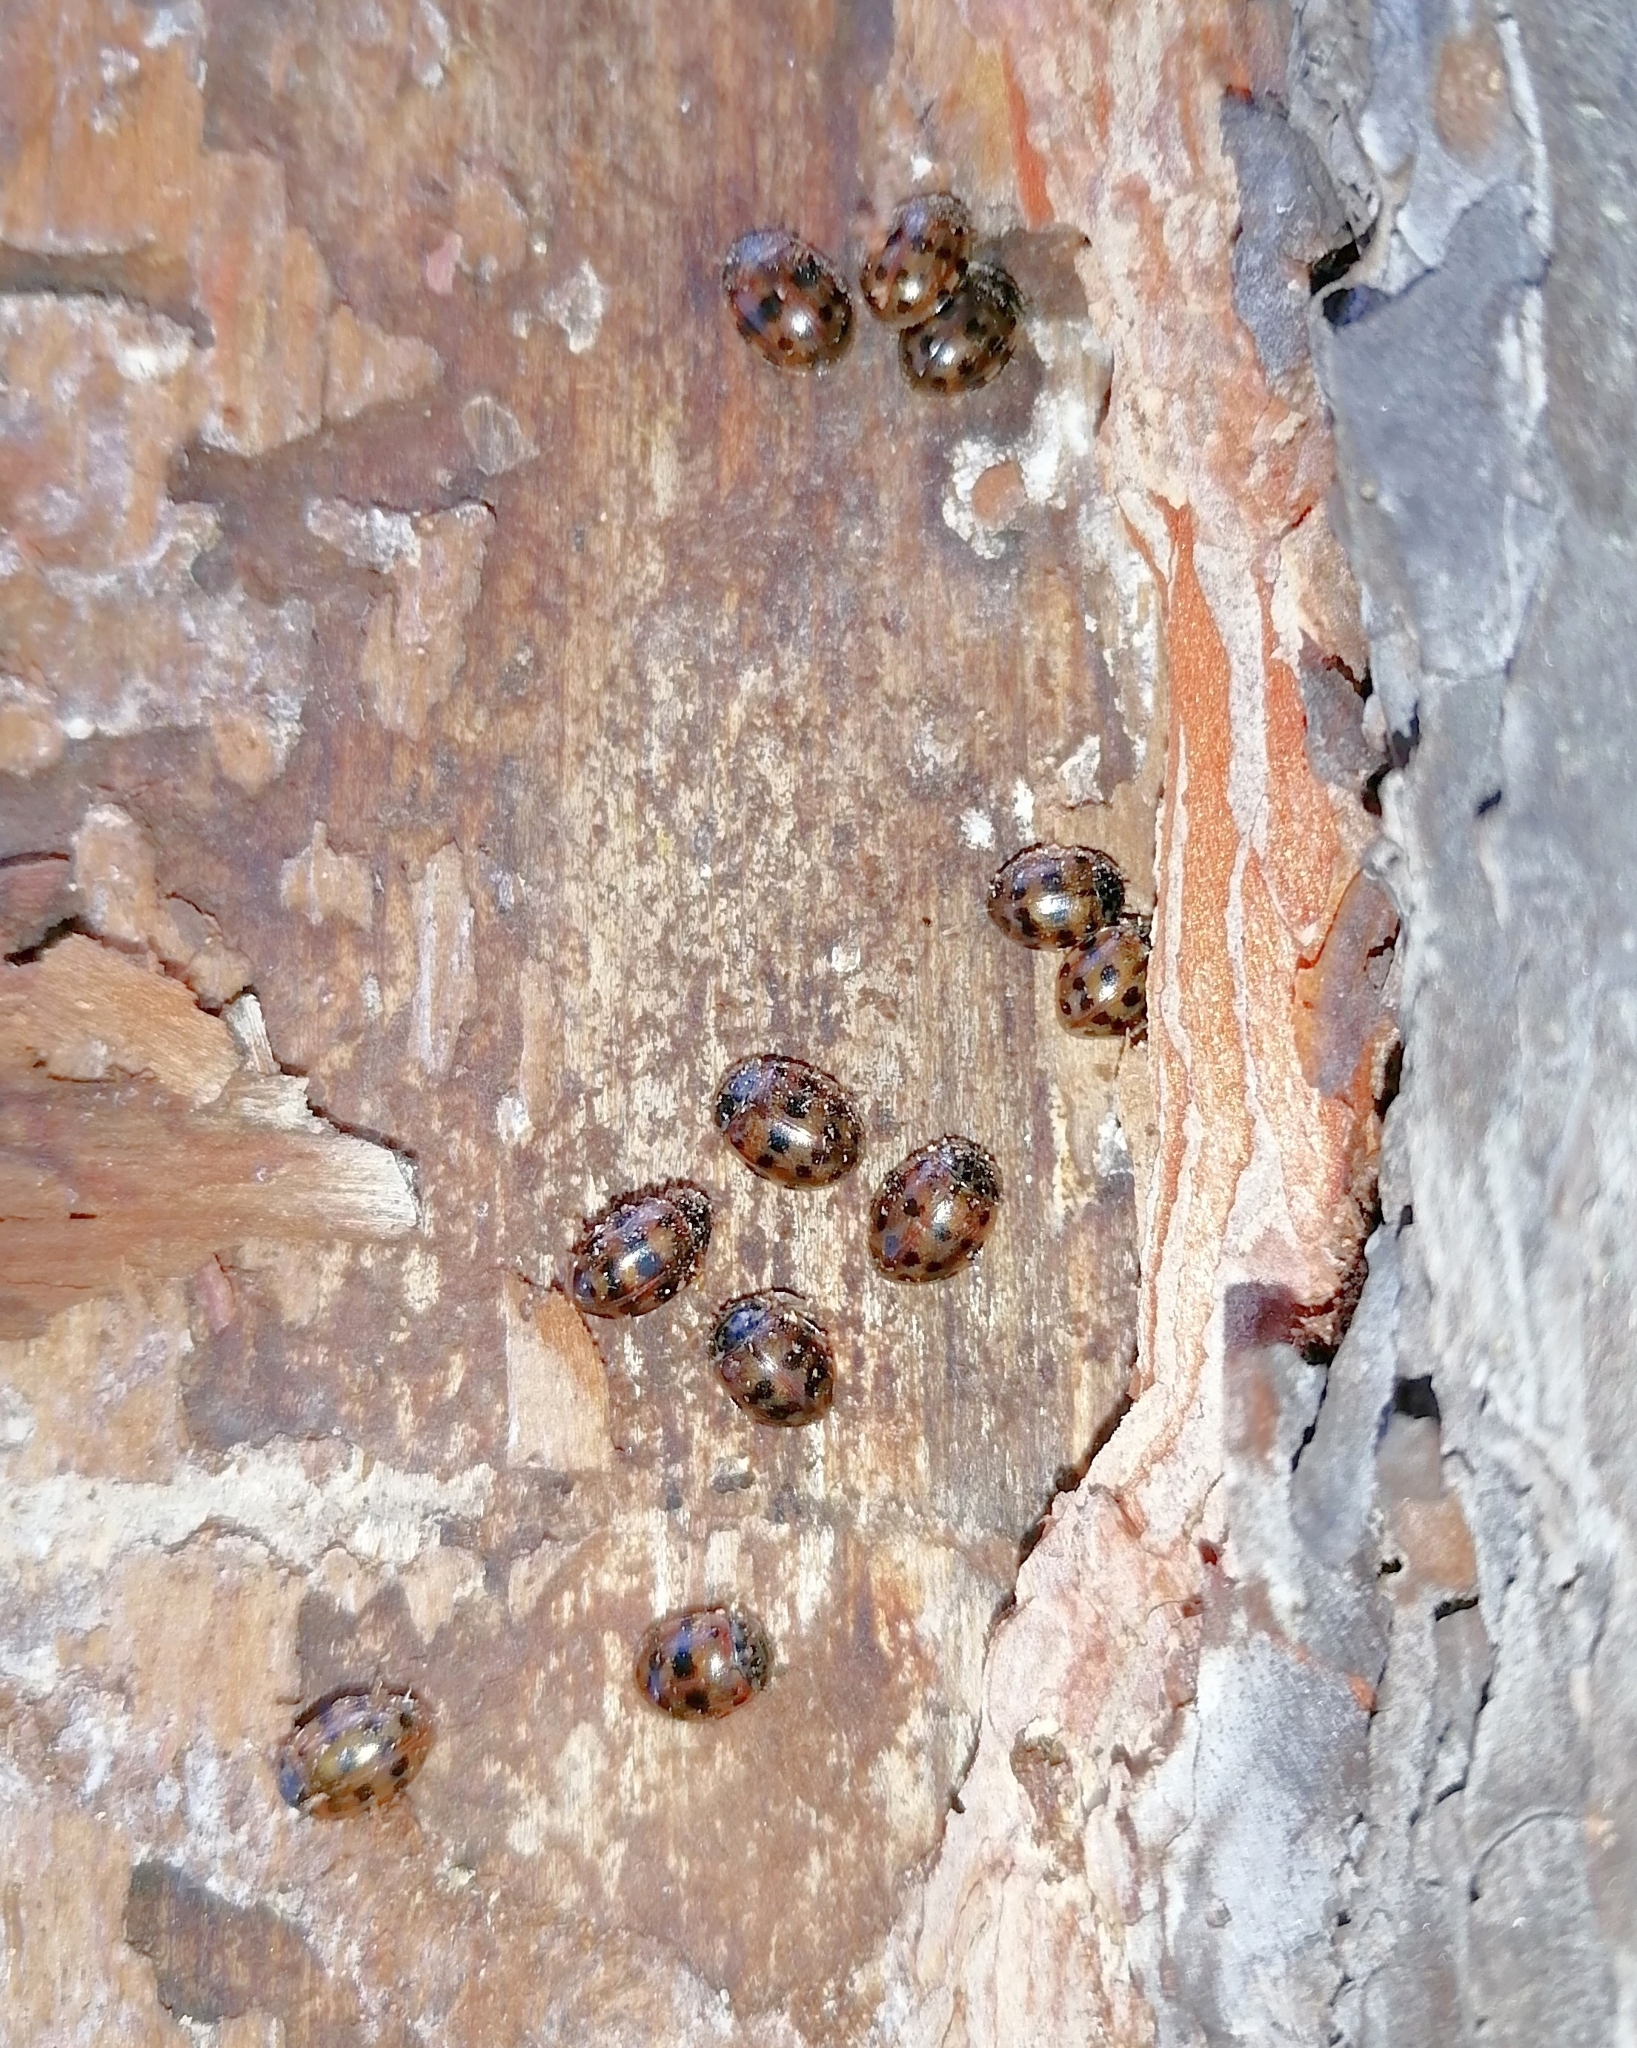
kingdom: Animalia
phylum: Arthropoda
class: Insecta
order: Coleoptera
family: Coccinellidae
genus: Harmonia
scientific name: Harmonia quadripunctata
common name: Cream-streaked ladybird
